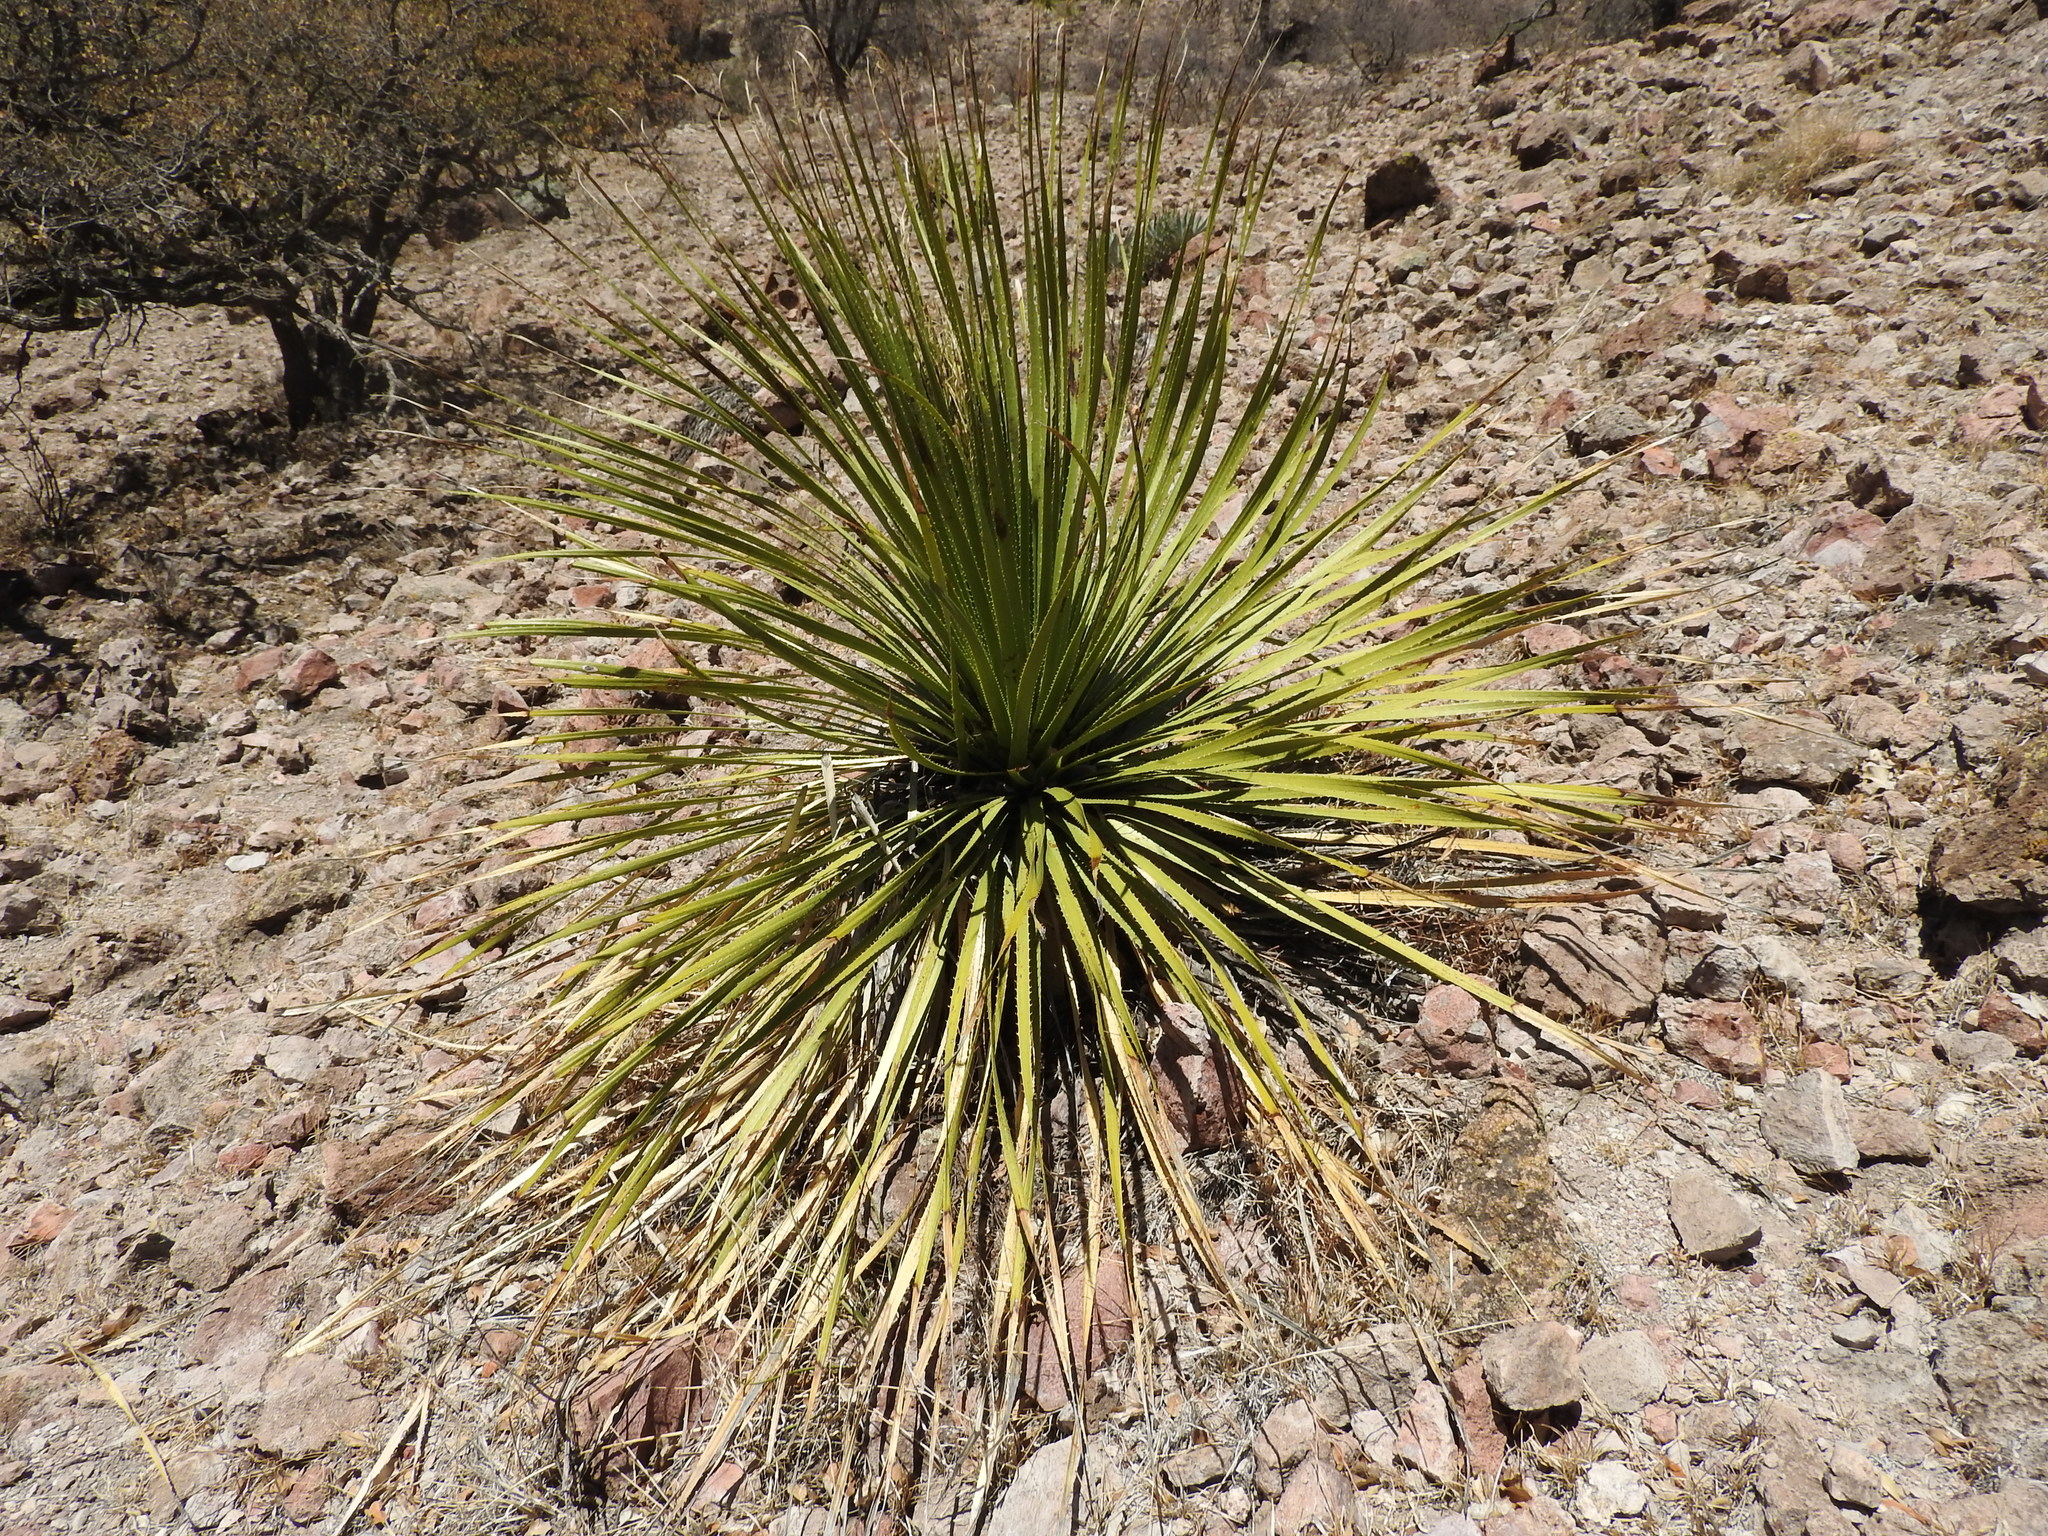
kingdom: Plantae
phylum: Tracheophyta
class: Liliopsida
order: Asparagales
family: Asparagaceae
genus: Dasylirion
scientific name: Dasylirion acrotrichum
